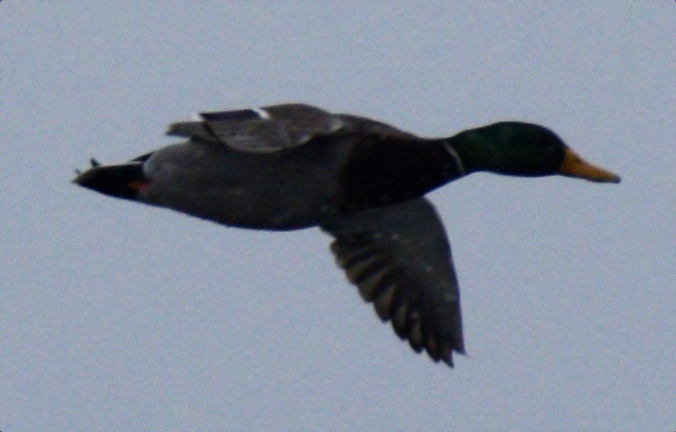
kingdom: Animalia
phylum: Chordata
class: Aves
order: Anseriformes
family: Anatidae
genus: Anas
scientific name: Anas platyrhynchos
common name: Mallard
